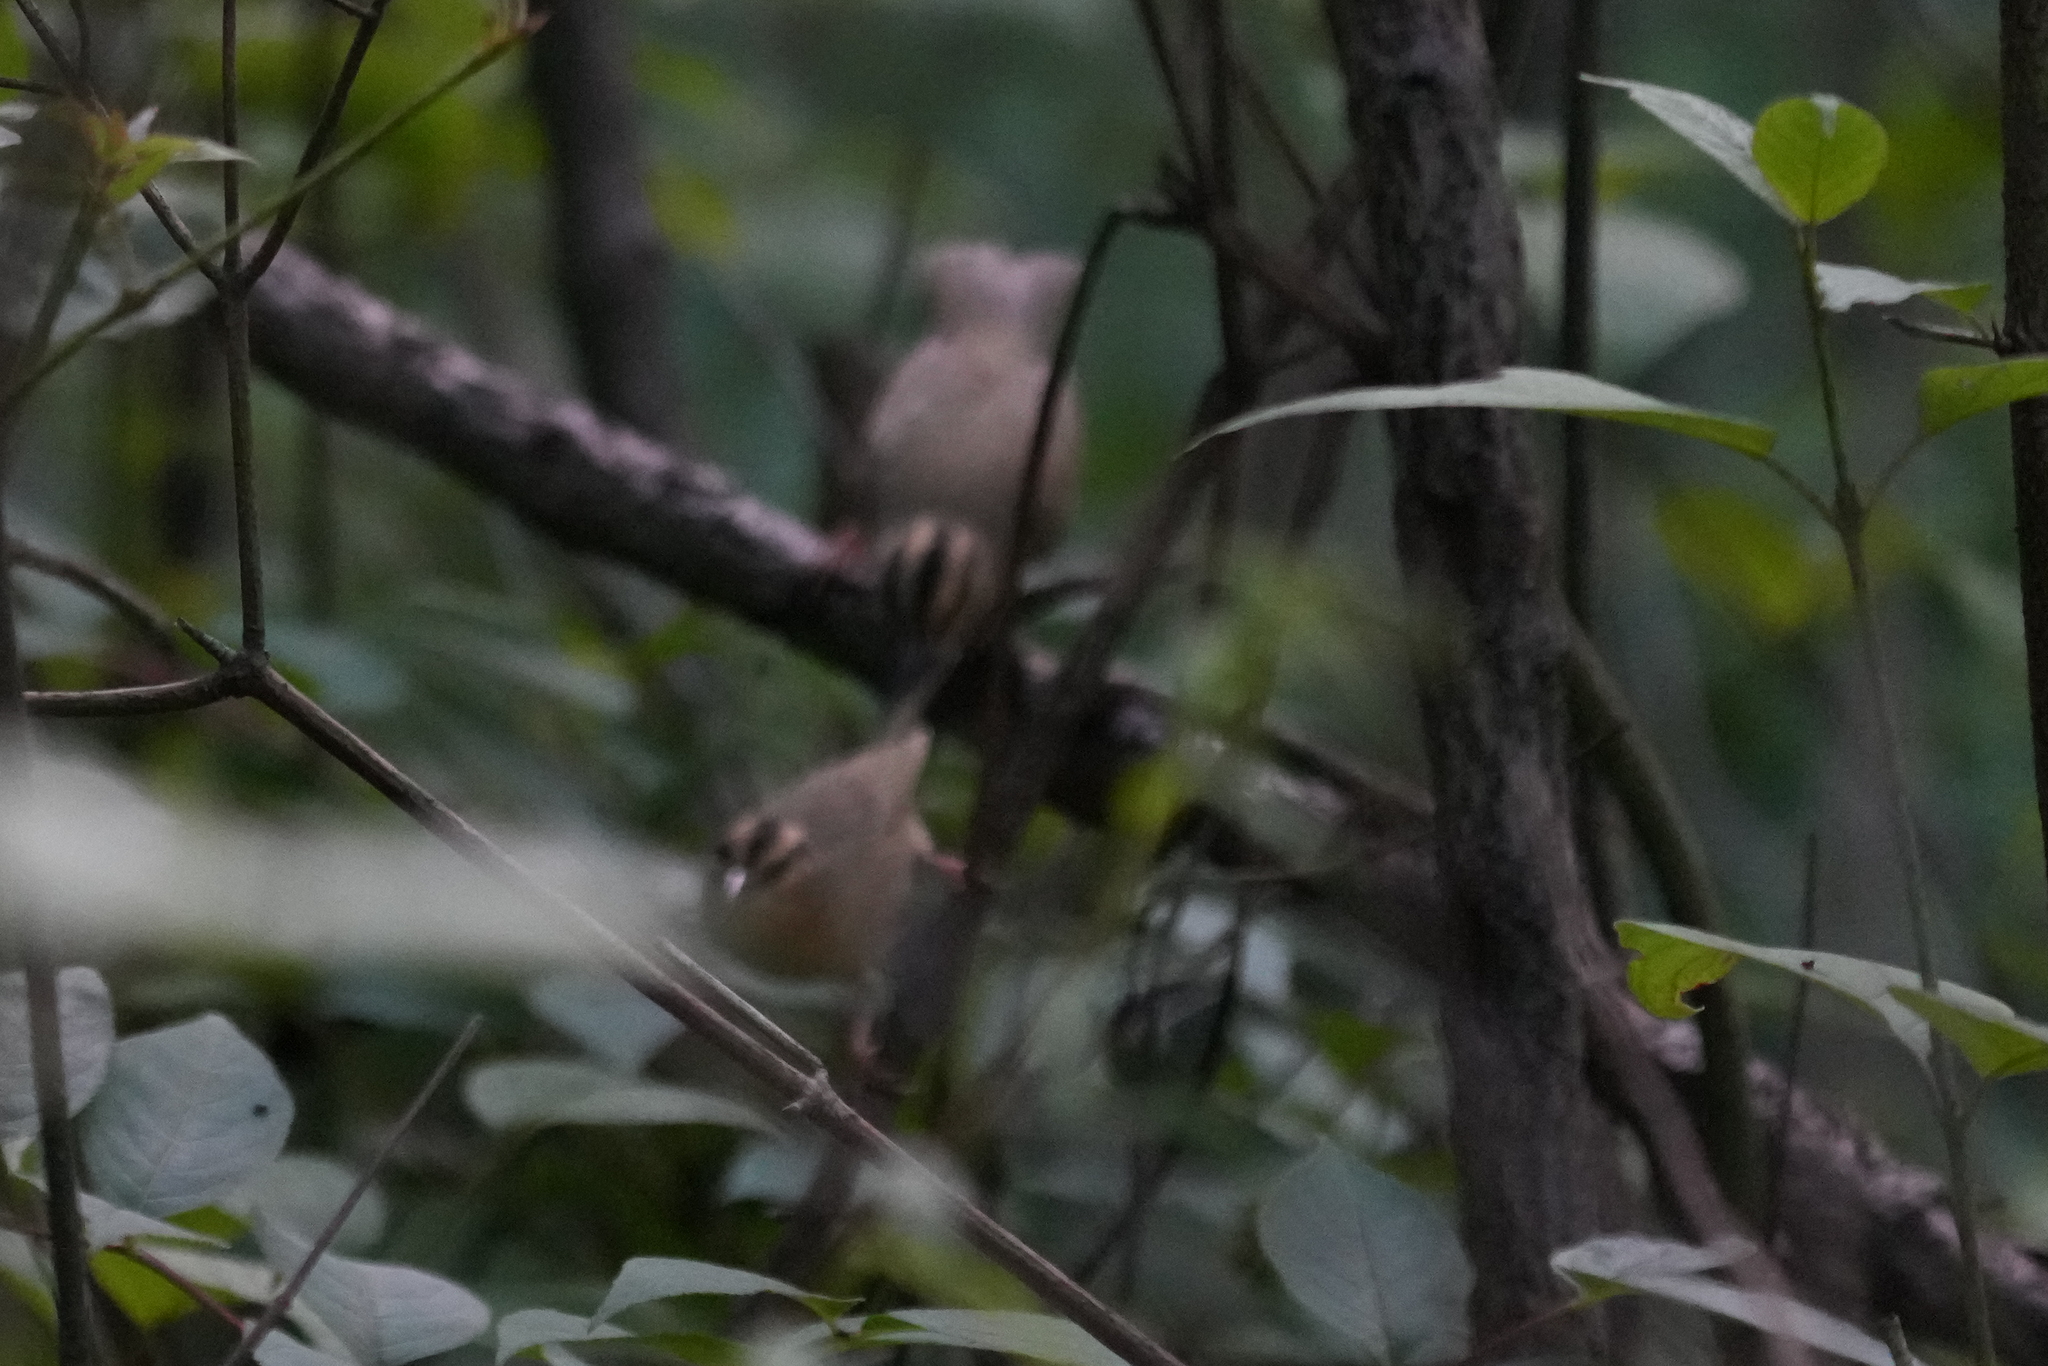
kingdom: Animalia
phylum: Chordata
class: Aves
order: Passeriformes
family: Parulidae
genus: Helmitheros
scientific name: Helmitheros vermivorum
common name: Worm-eating warbler
